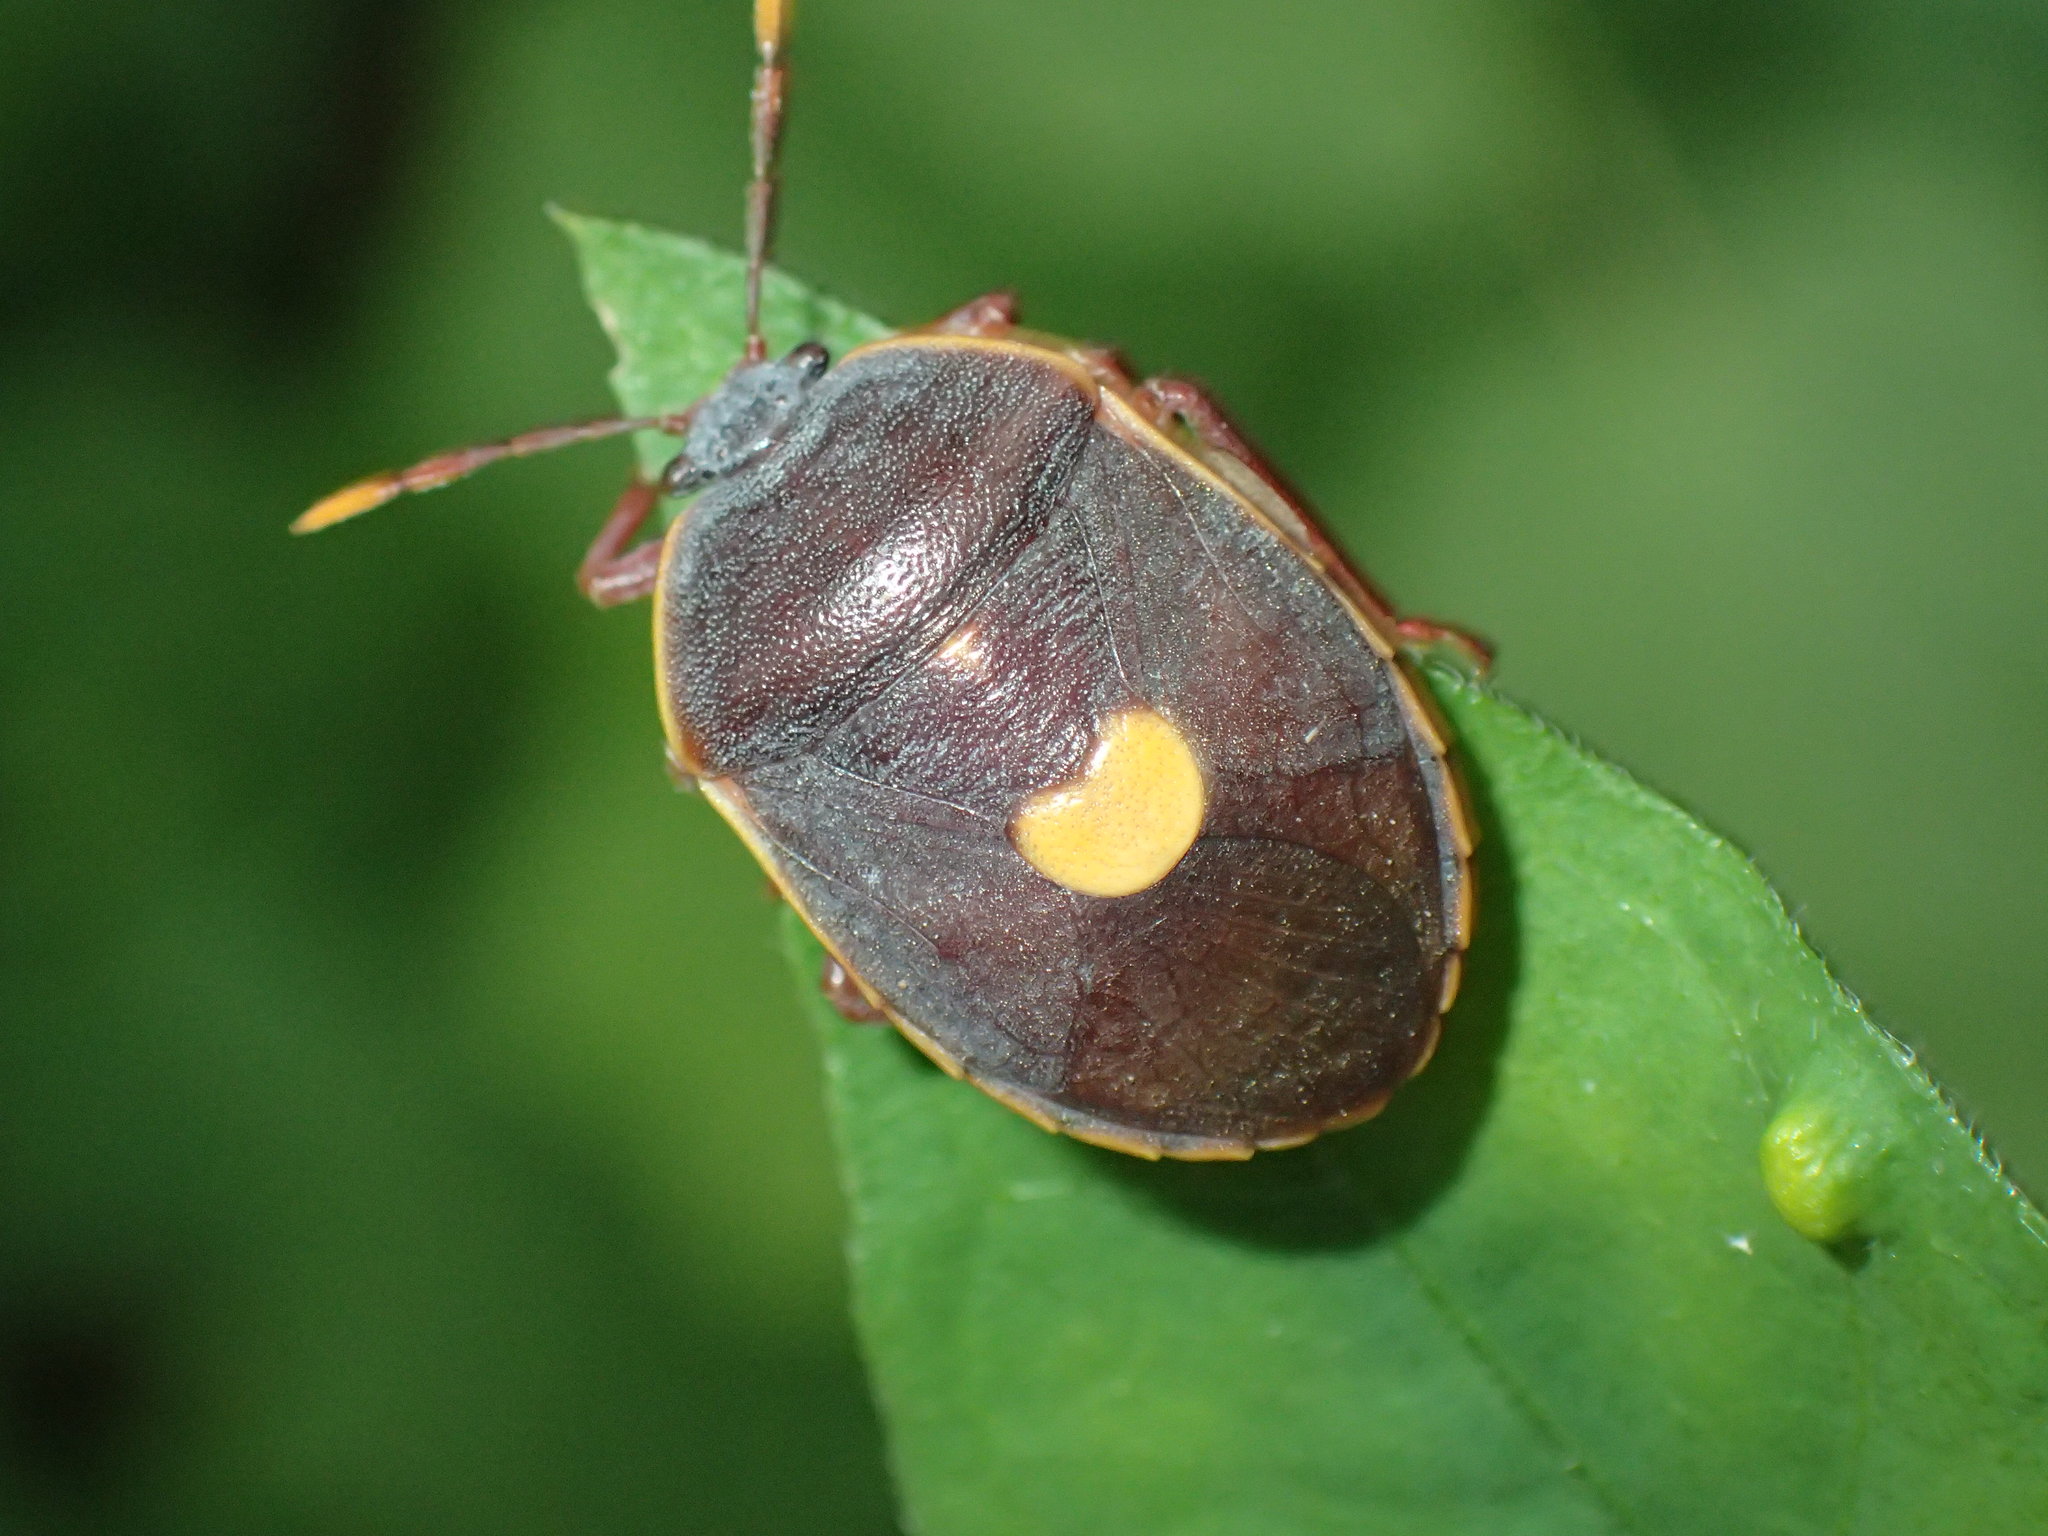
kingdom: Animalia
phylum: Arthropoda
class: Insecta
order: Hemiptera
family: Dinidoridae
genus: Colpoproctus
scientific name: Colpoproctus pullus
